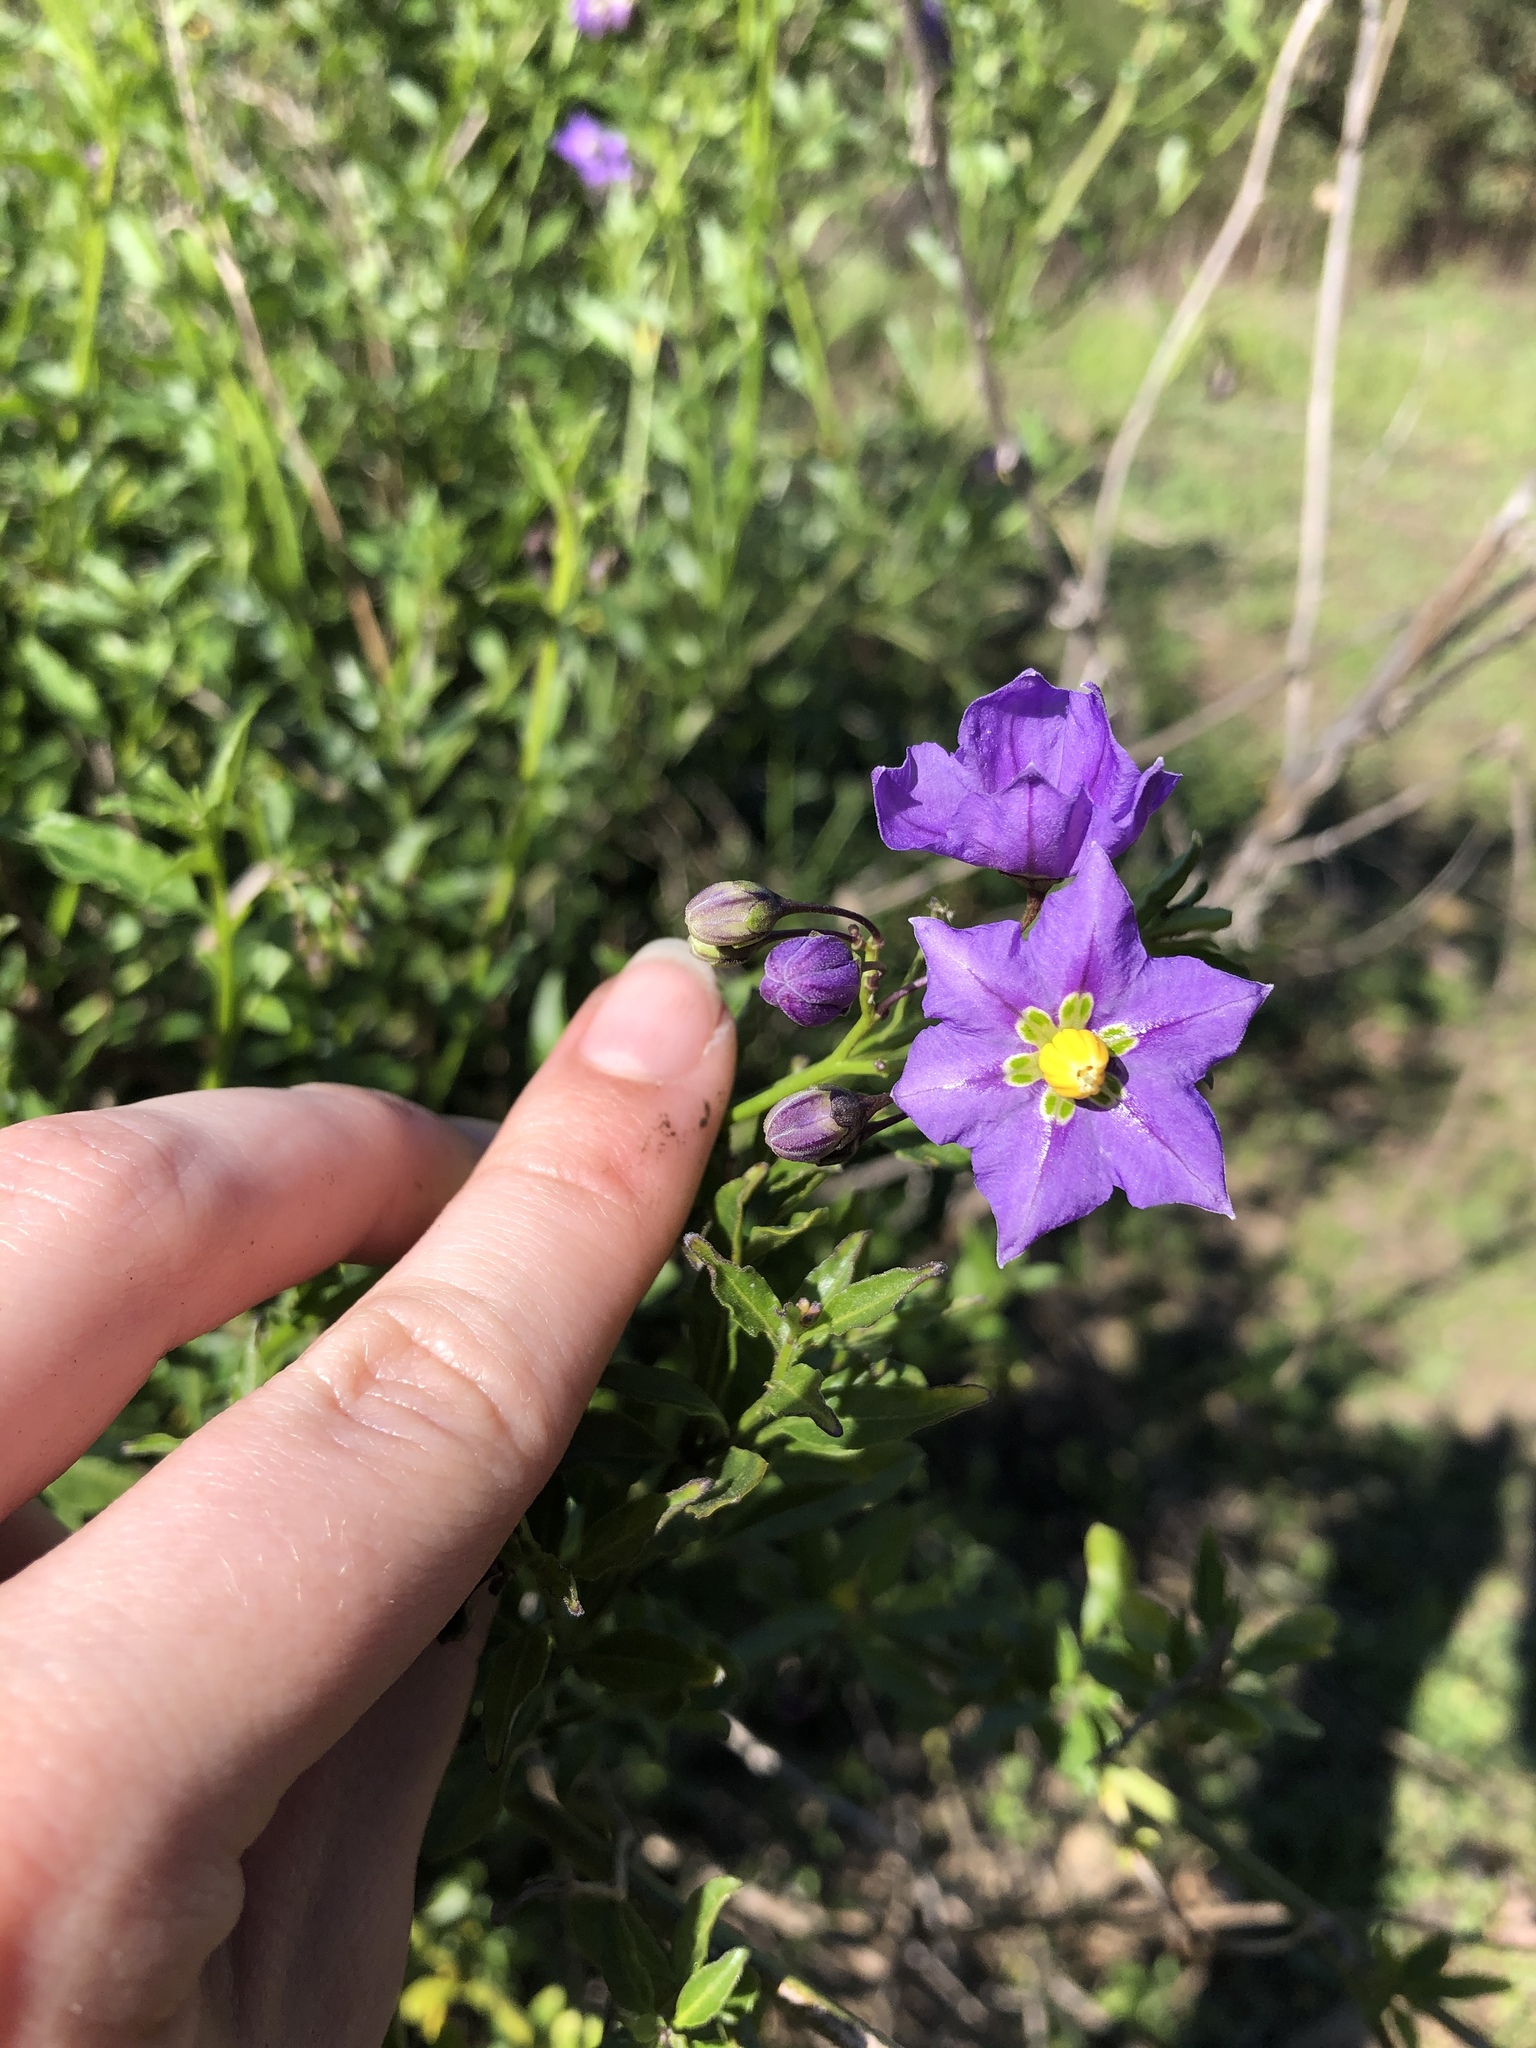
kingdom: Plantae
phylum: Tracheophyta
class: Magnoliopsida
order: Solanales
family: Solanaceae
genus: Solanum
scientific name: Solanum umbelliferum
